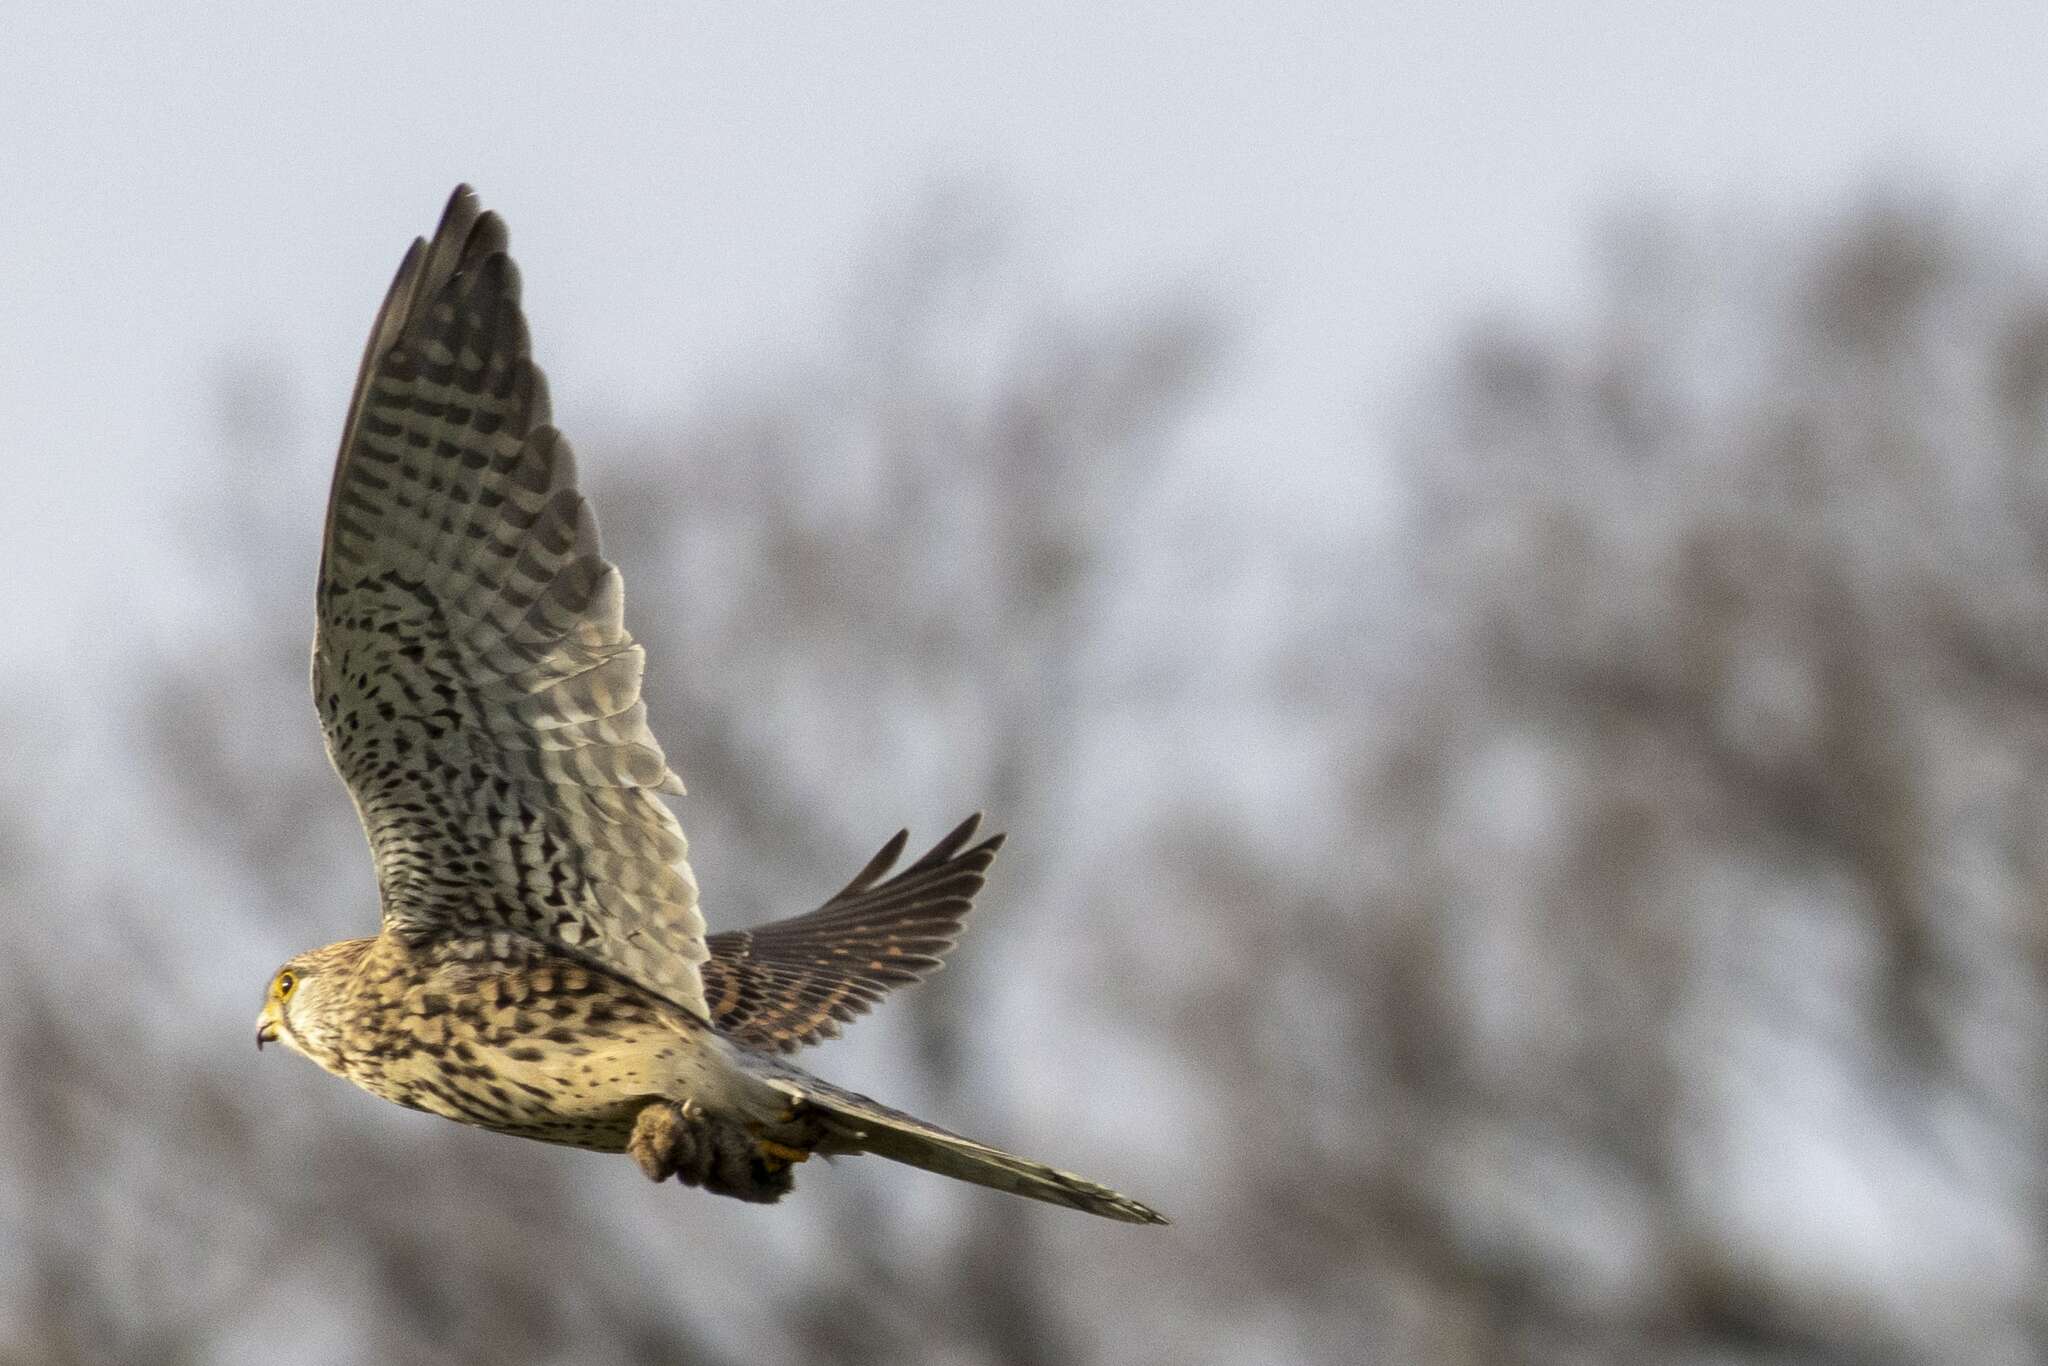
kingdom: Animalia
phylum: Chordata
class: Aves
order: Falconiformes
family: Falconidae
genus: Falco
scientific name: Falco tinnunculus
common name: Common kestrel
